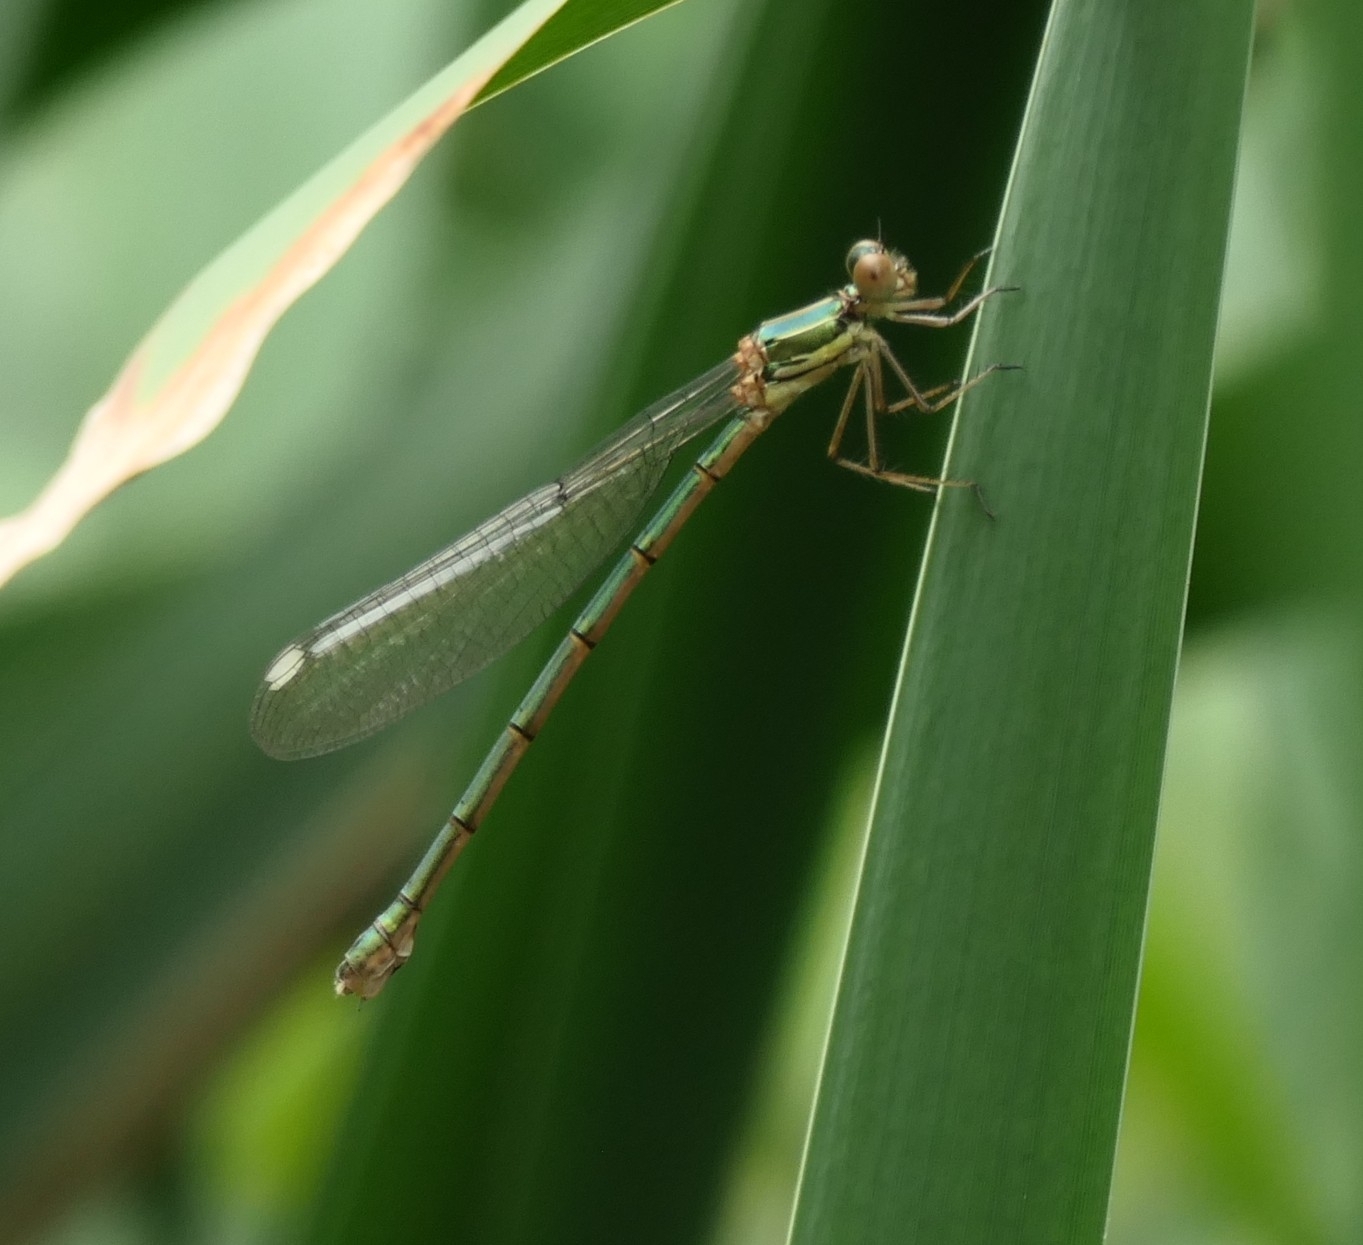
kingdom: Animalia
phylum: Arthropoda
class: Insecta
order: Odonata
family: Lestidae
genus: Chalcolestes
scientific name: Chalcolestes viridis
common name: Green emerald damselfly
